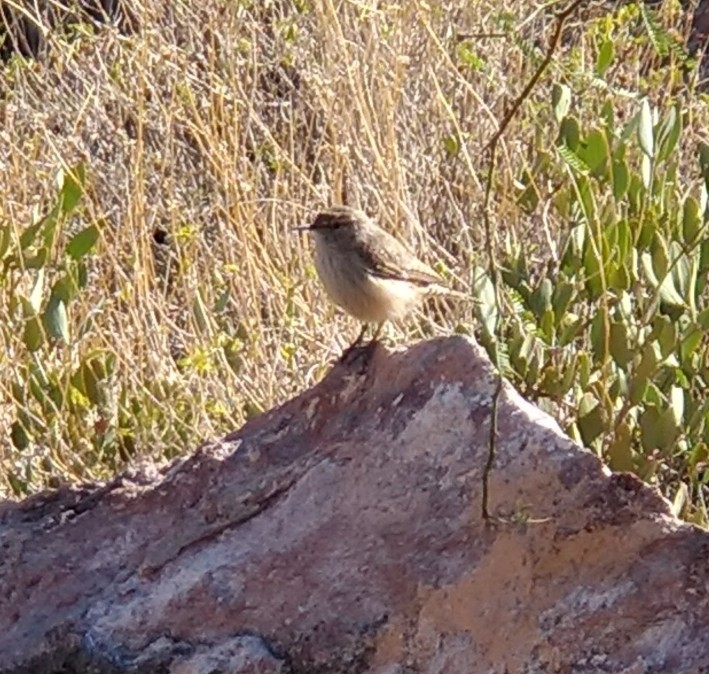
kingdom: Animalia
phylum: Chordata
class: Aves
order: Passeriformes
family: Troglodytidae
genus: Salpinctes
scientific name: Salpinctes obsoletus
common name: Rock wren
